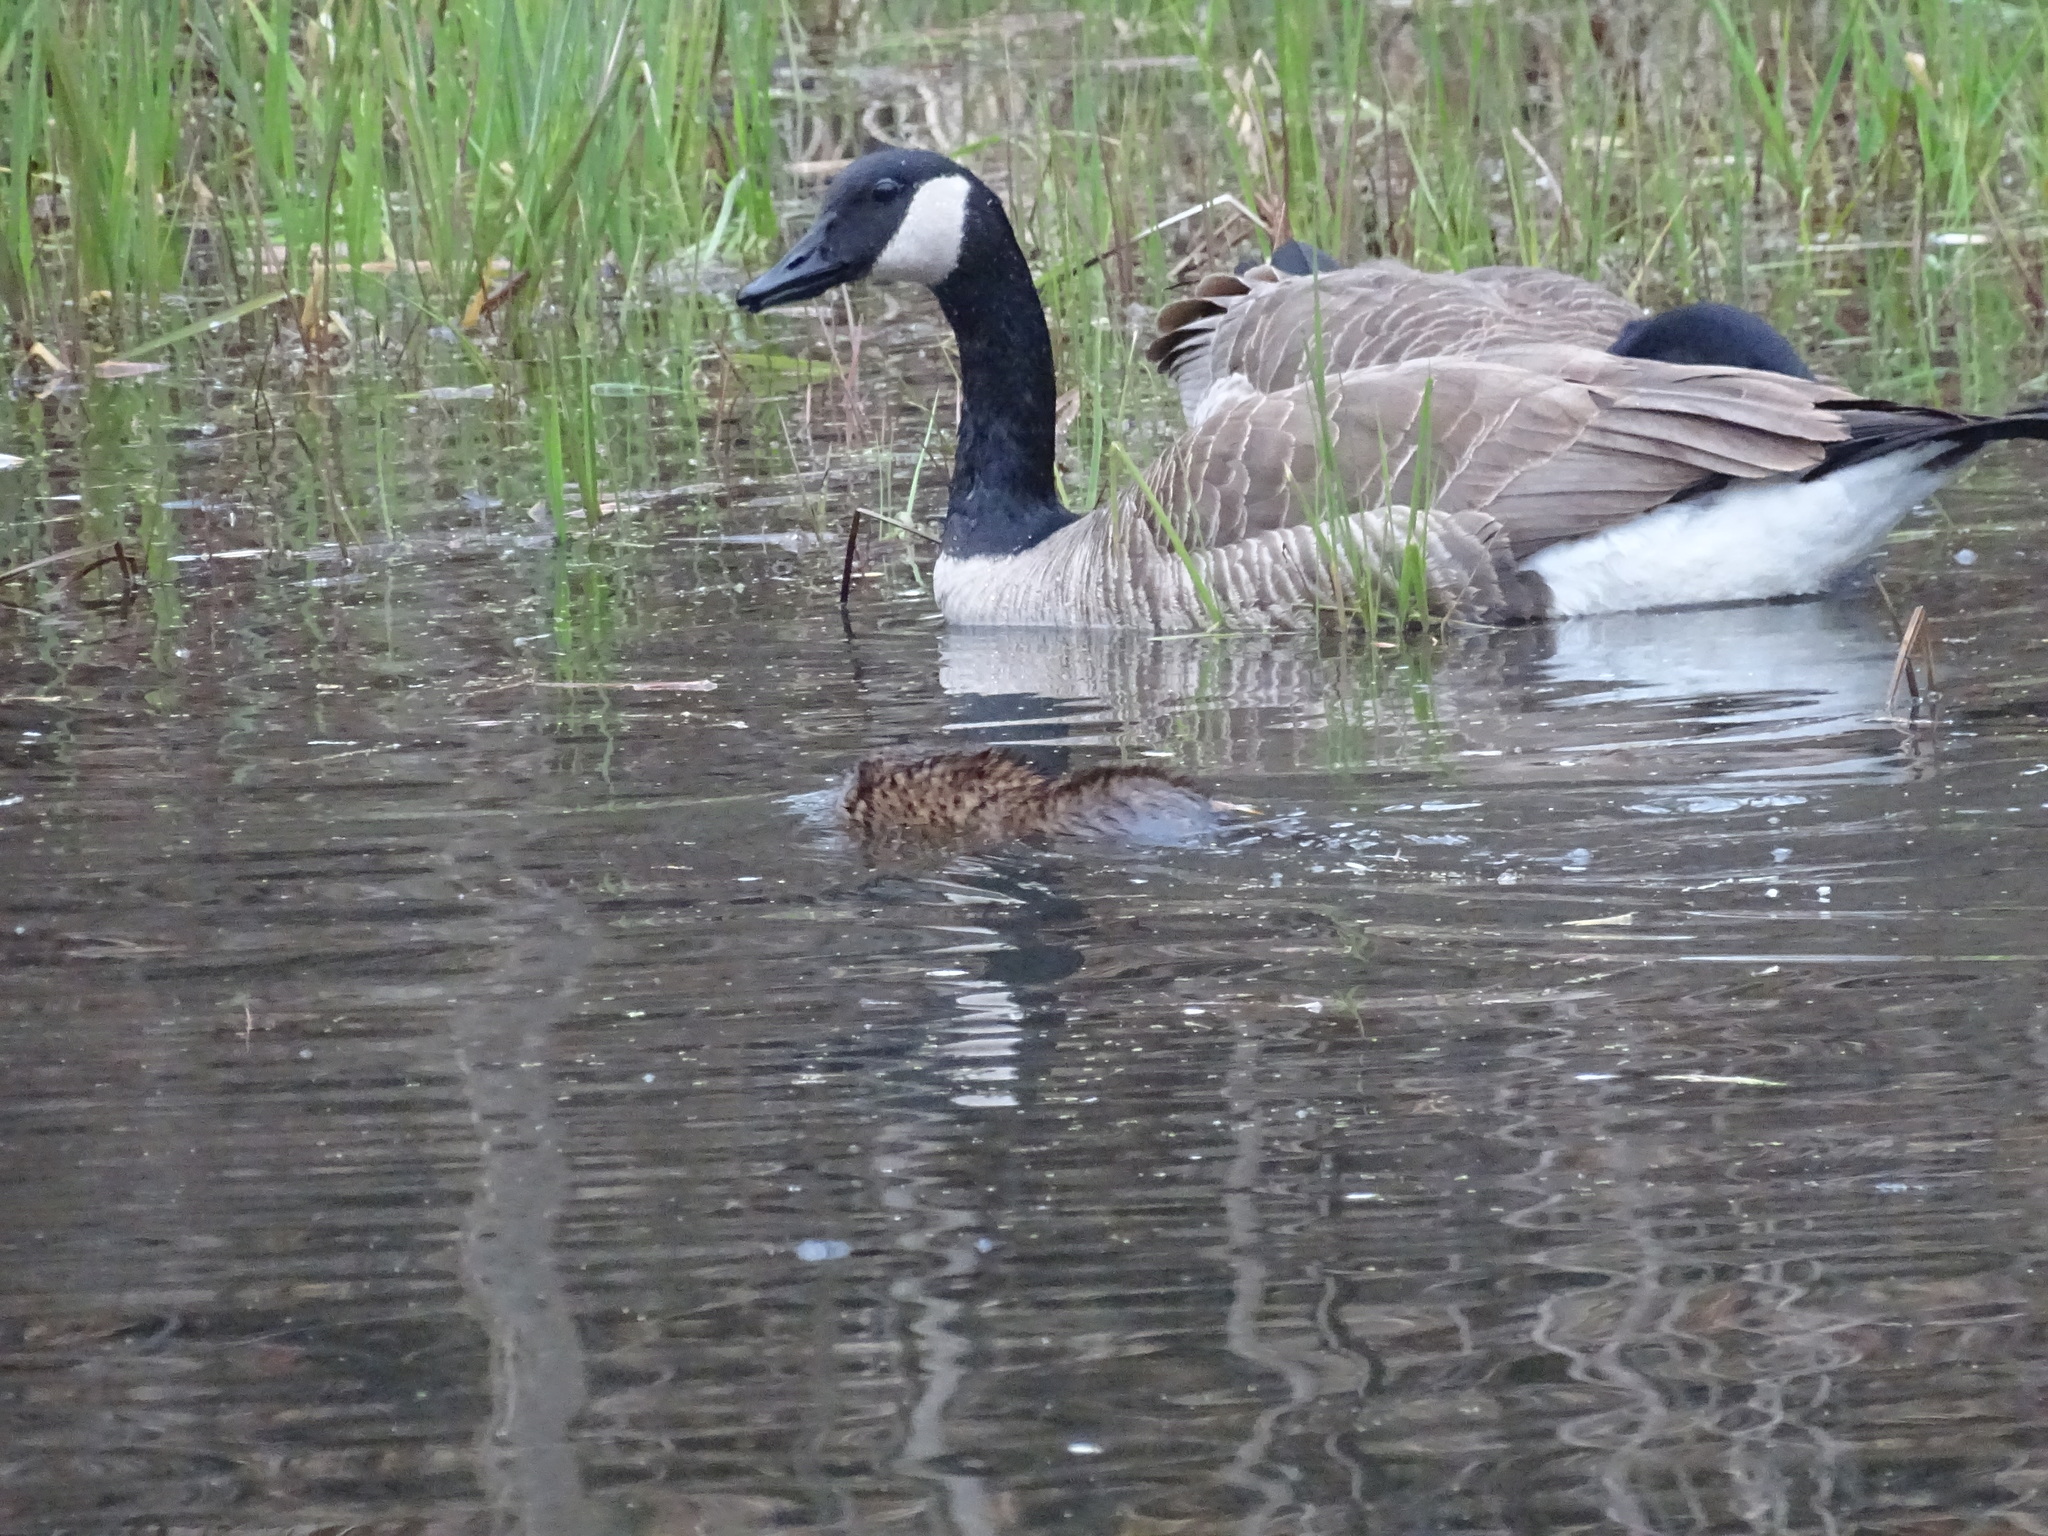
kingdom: Animalia
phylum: Chordata
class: Aves
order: Anseriformes
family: Anatidae
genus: Branta
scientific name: Branta canadensis
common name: Canada goose
